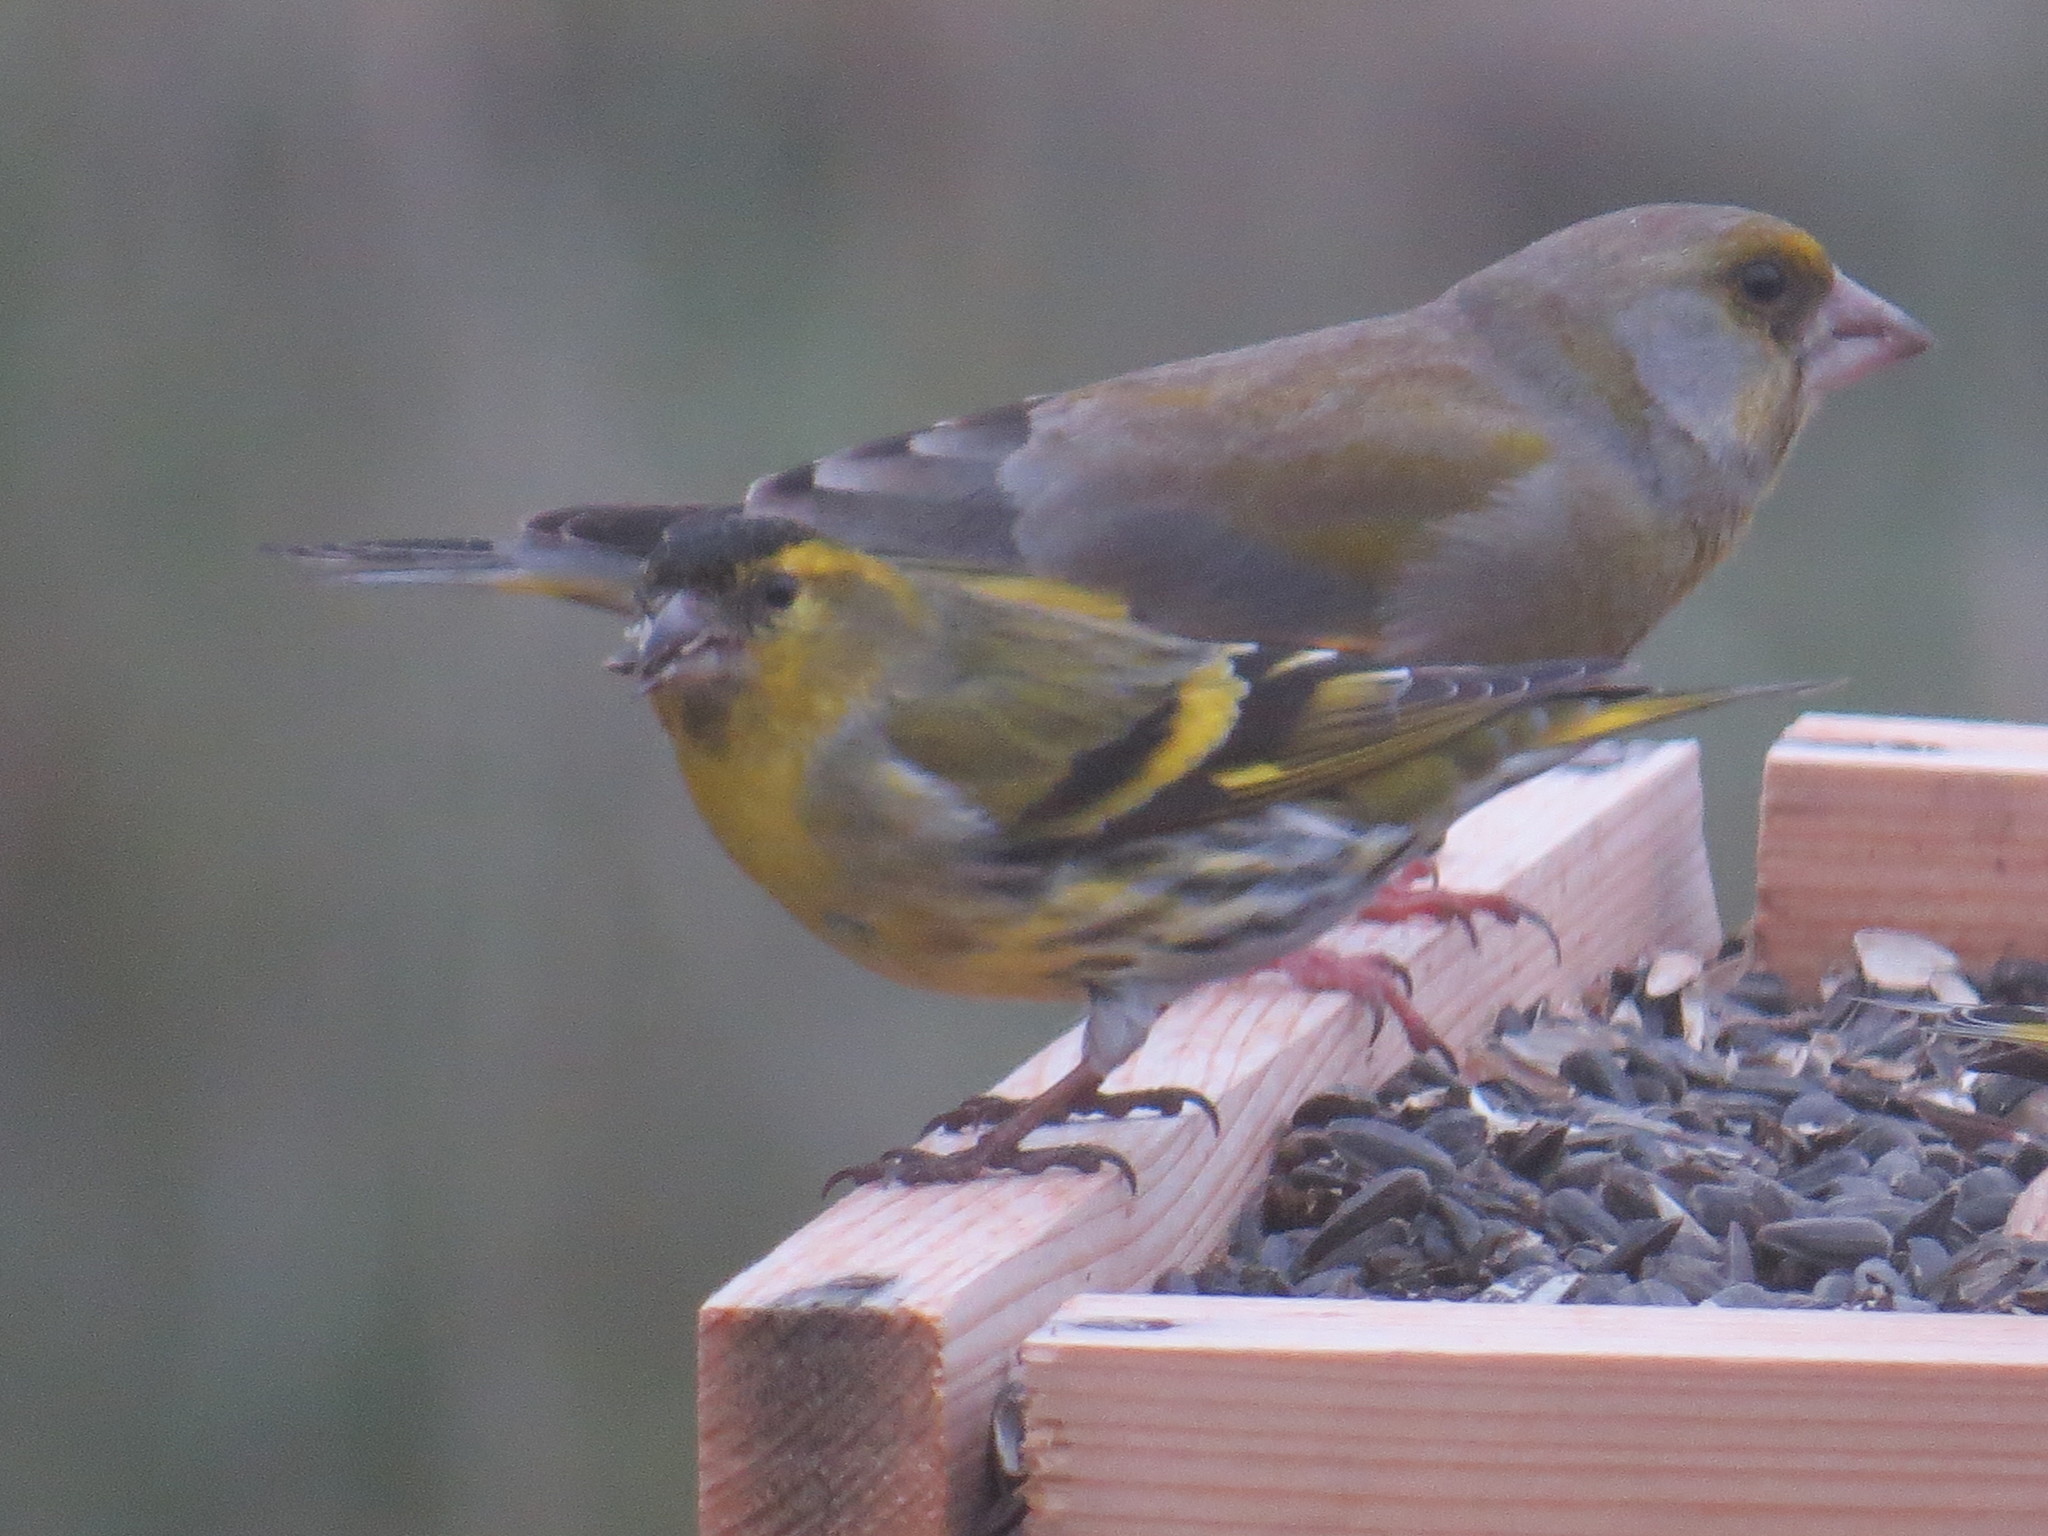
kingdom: Animalia
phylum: Chordata
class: Aves
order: Passeriformes
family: Fringillidae
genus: Spinus
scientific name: Spinus spinus
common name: Eurasian siskin
